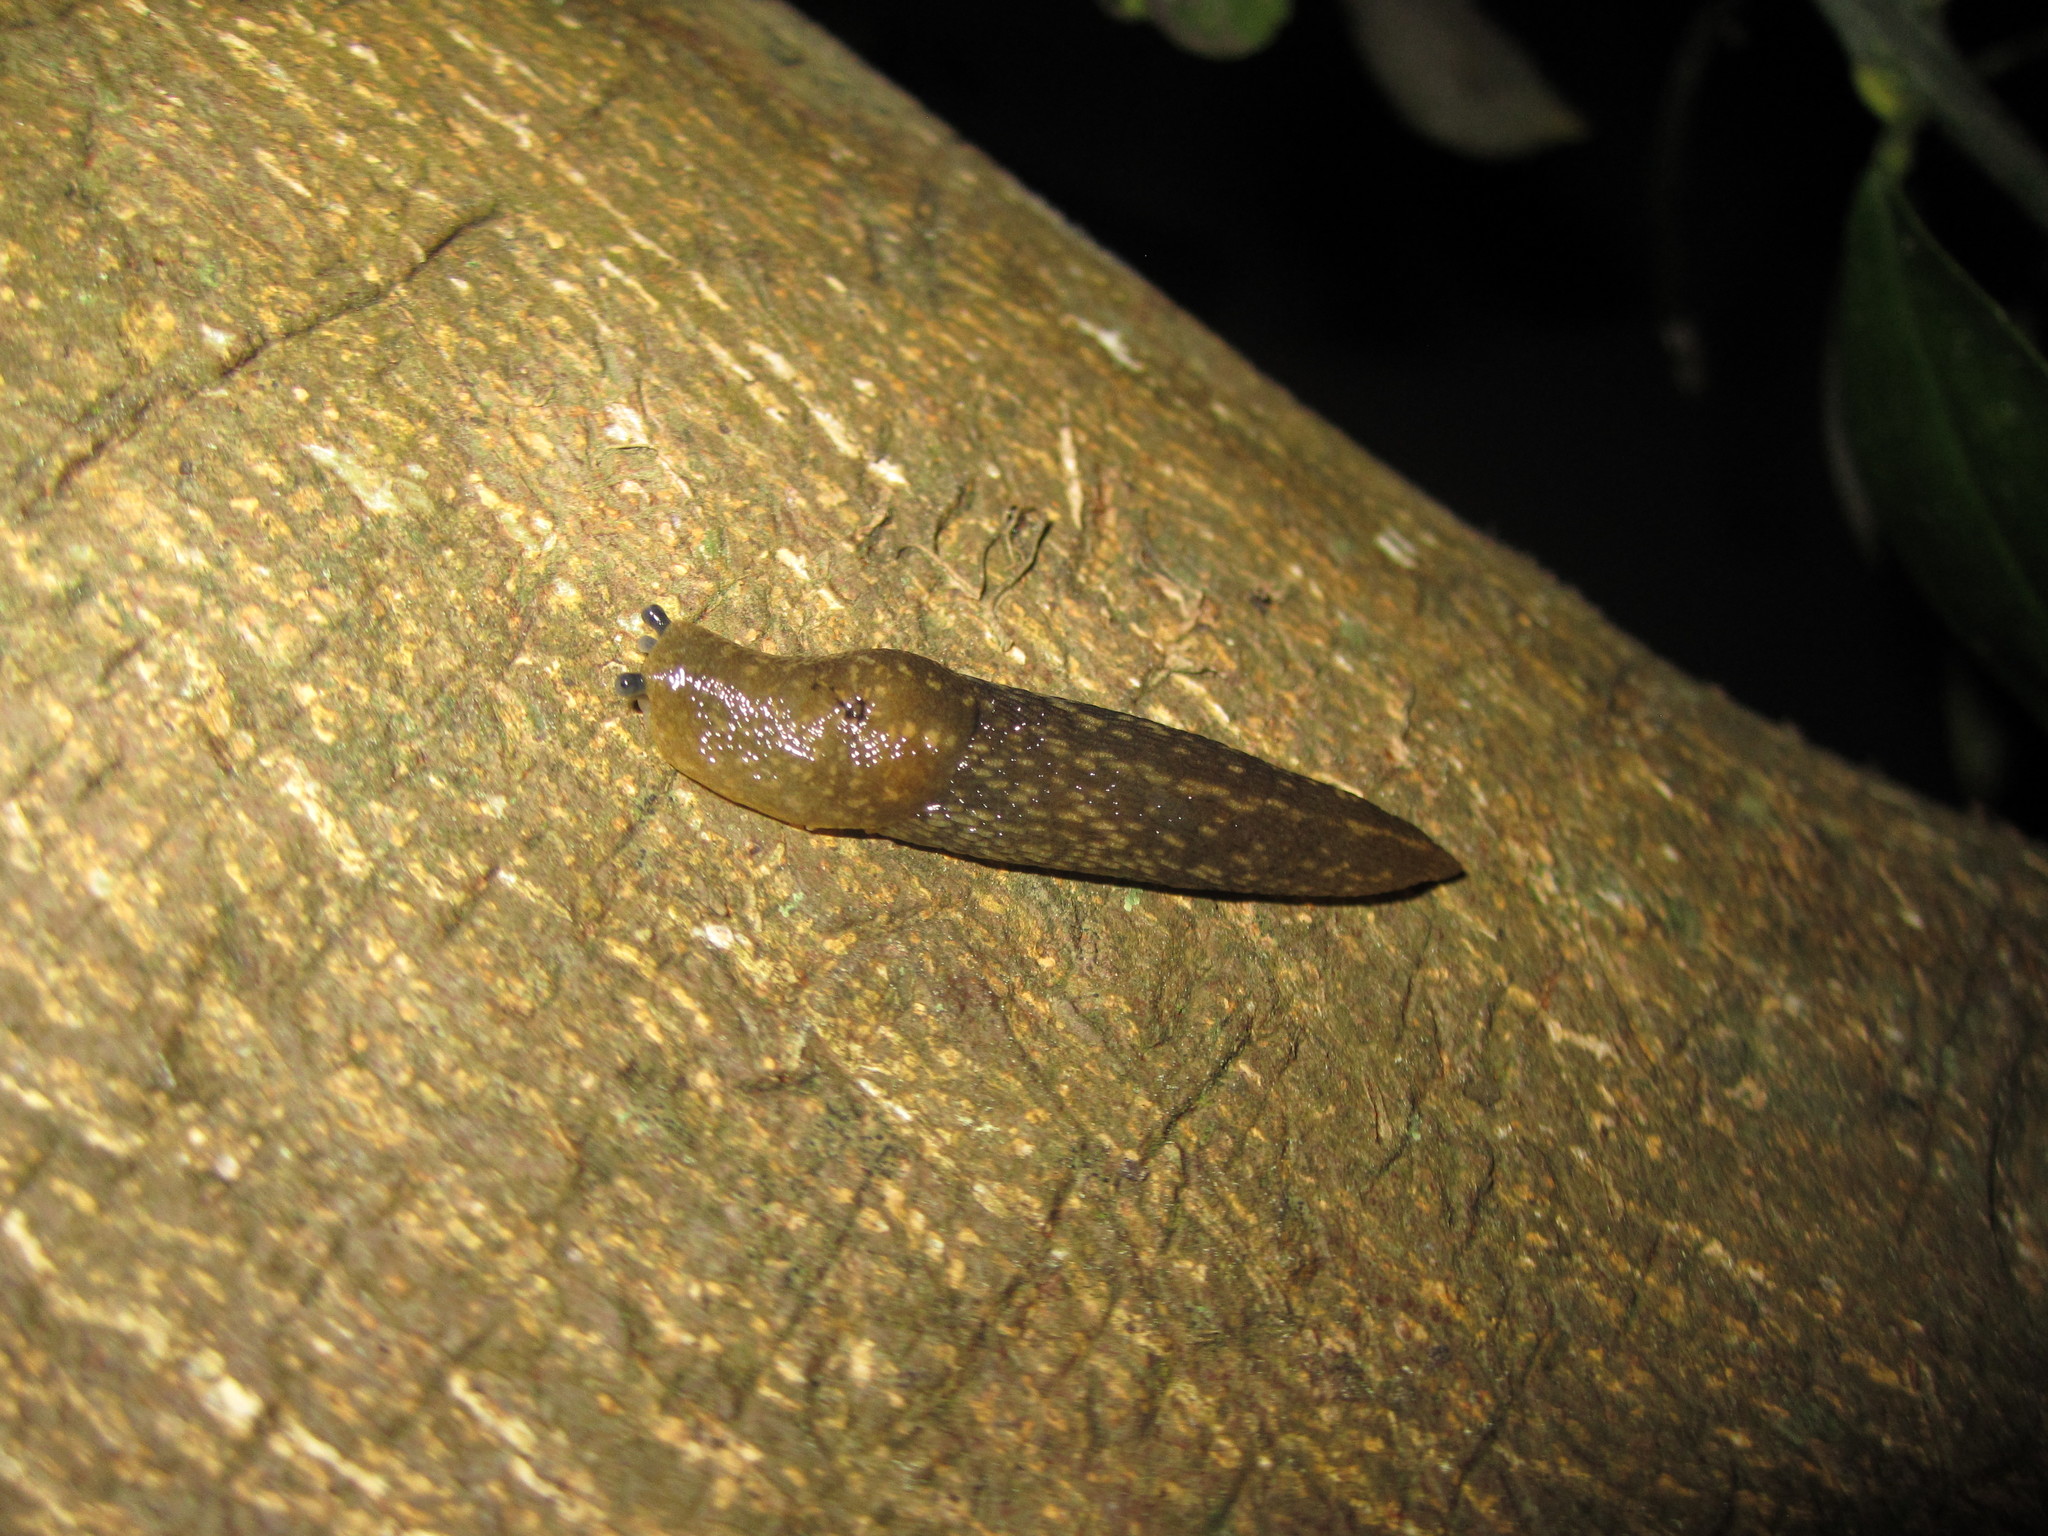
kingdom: Animalia
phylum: Mollusca
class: Gastropoda
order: Stylommatophora
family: Limacidae
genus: Limacus
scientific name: Limacus flavus
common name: Yellow gardenslug
